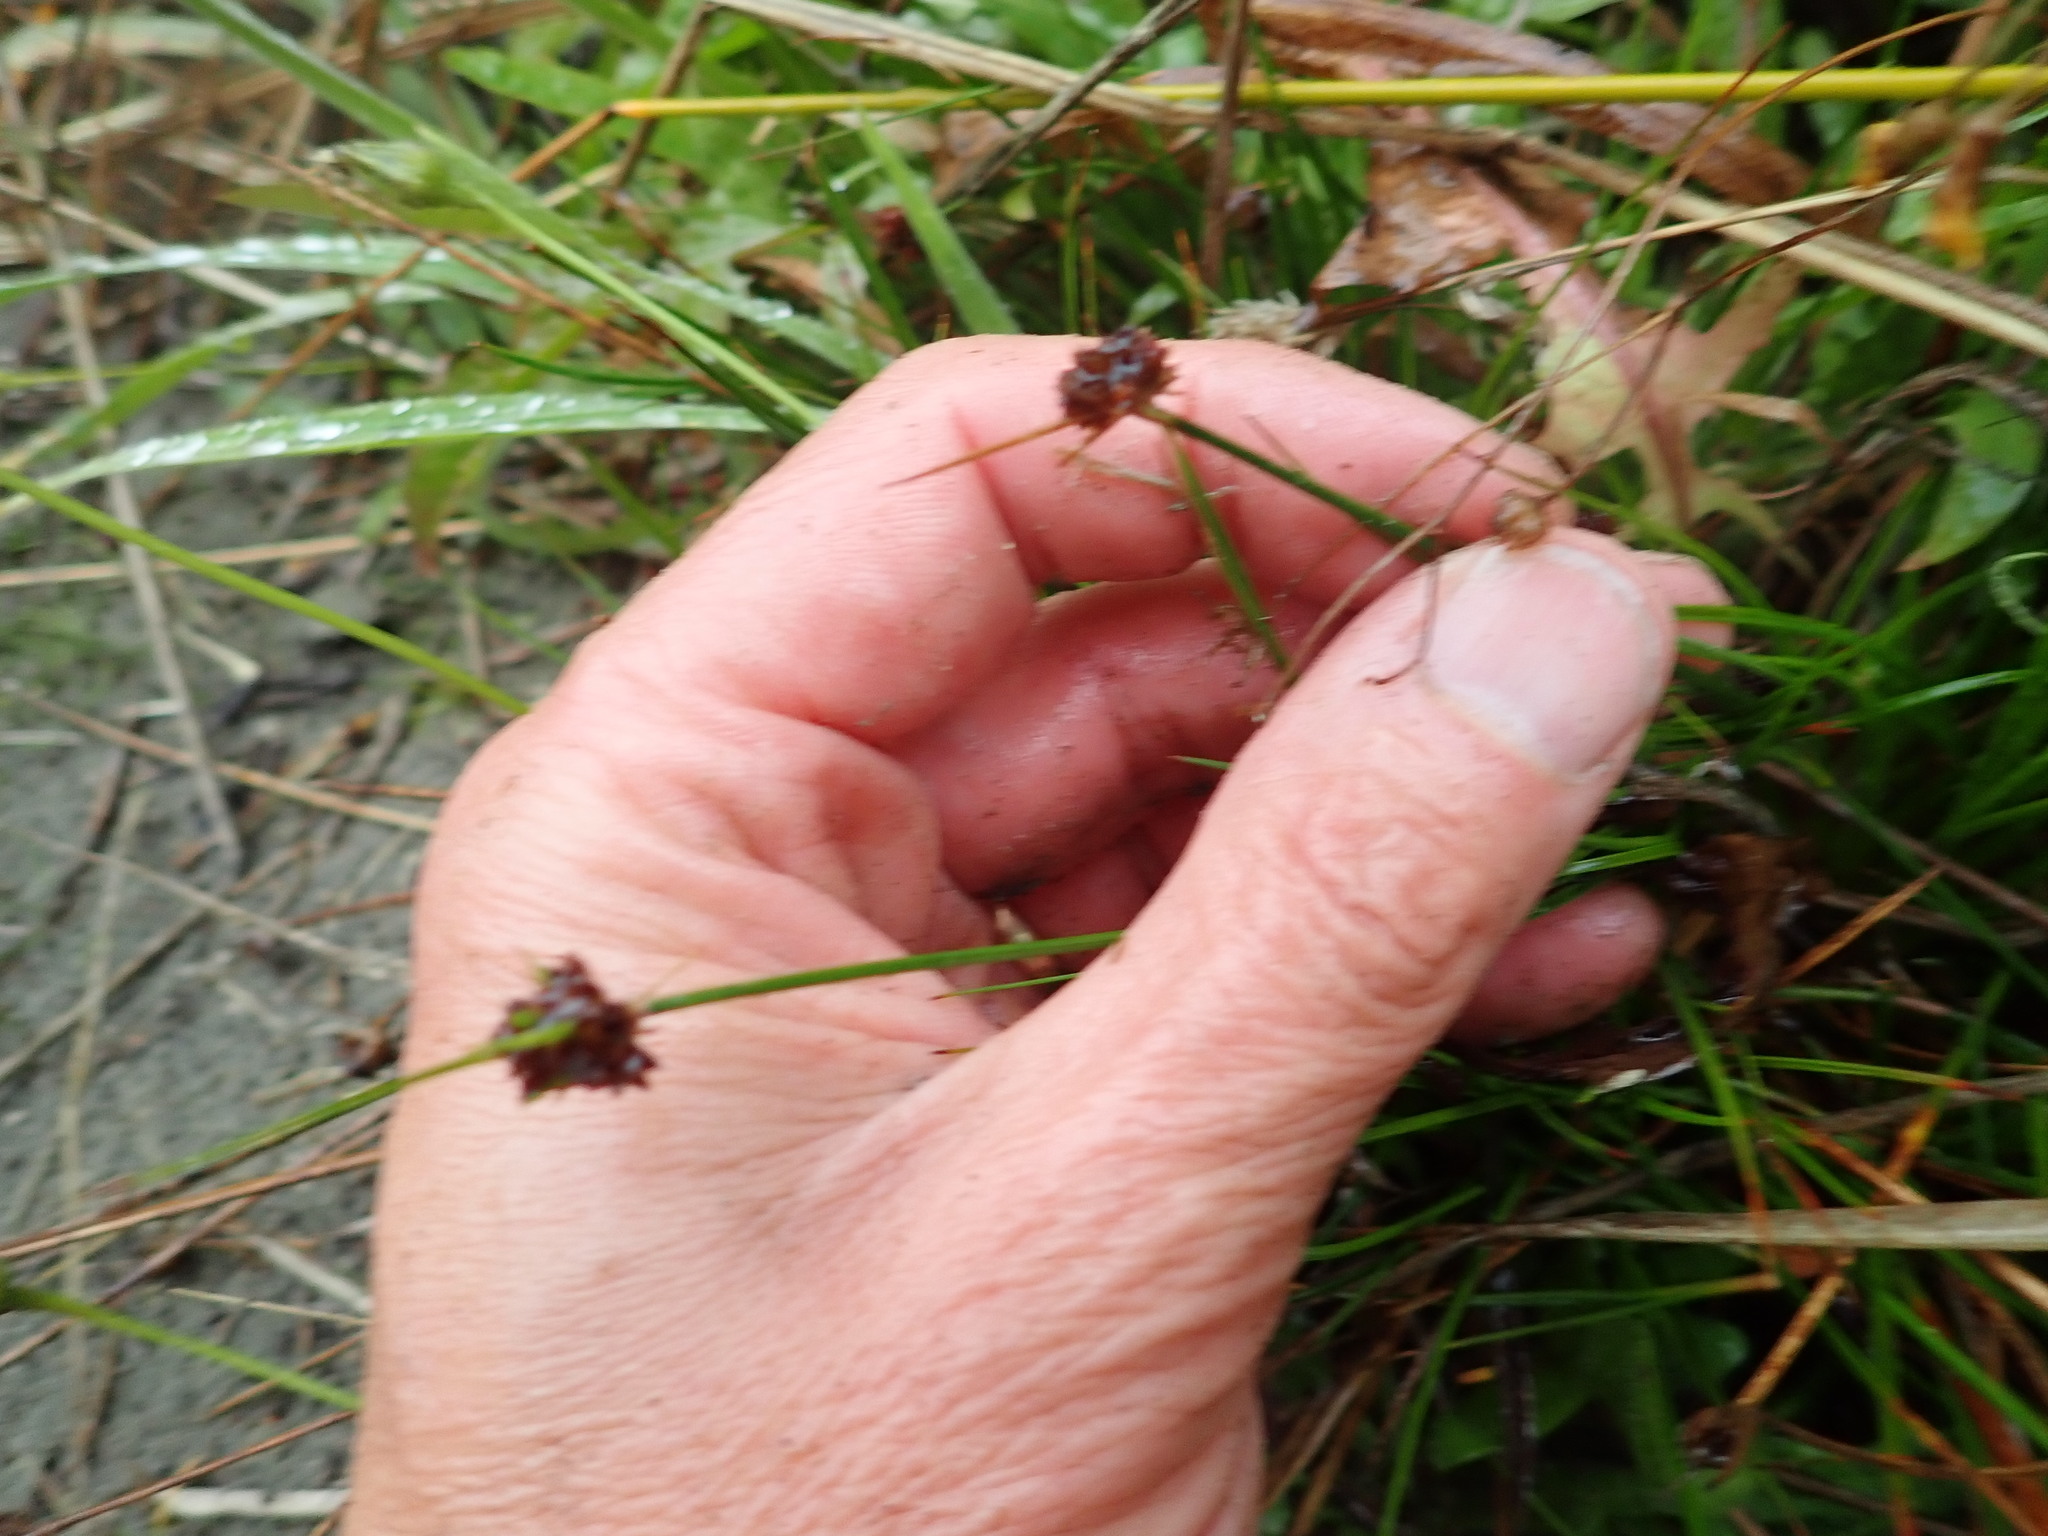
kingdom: Plantae
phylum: Tracheophyta
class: Liliopsida
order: Poales
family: Juncaceae
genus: Juncus
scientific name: Juncus caespiticius
